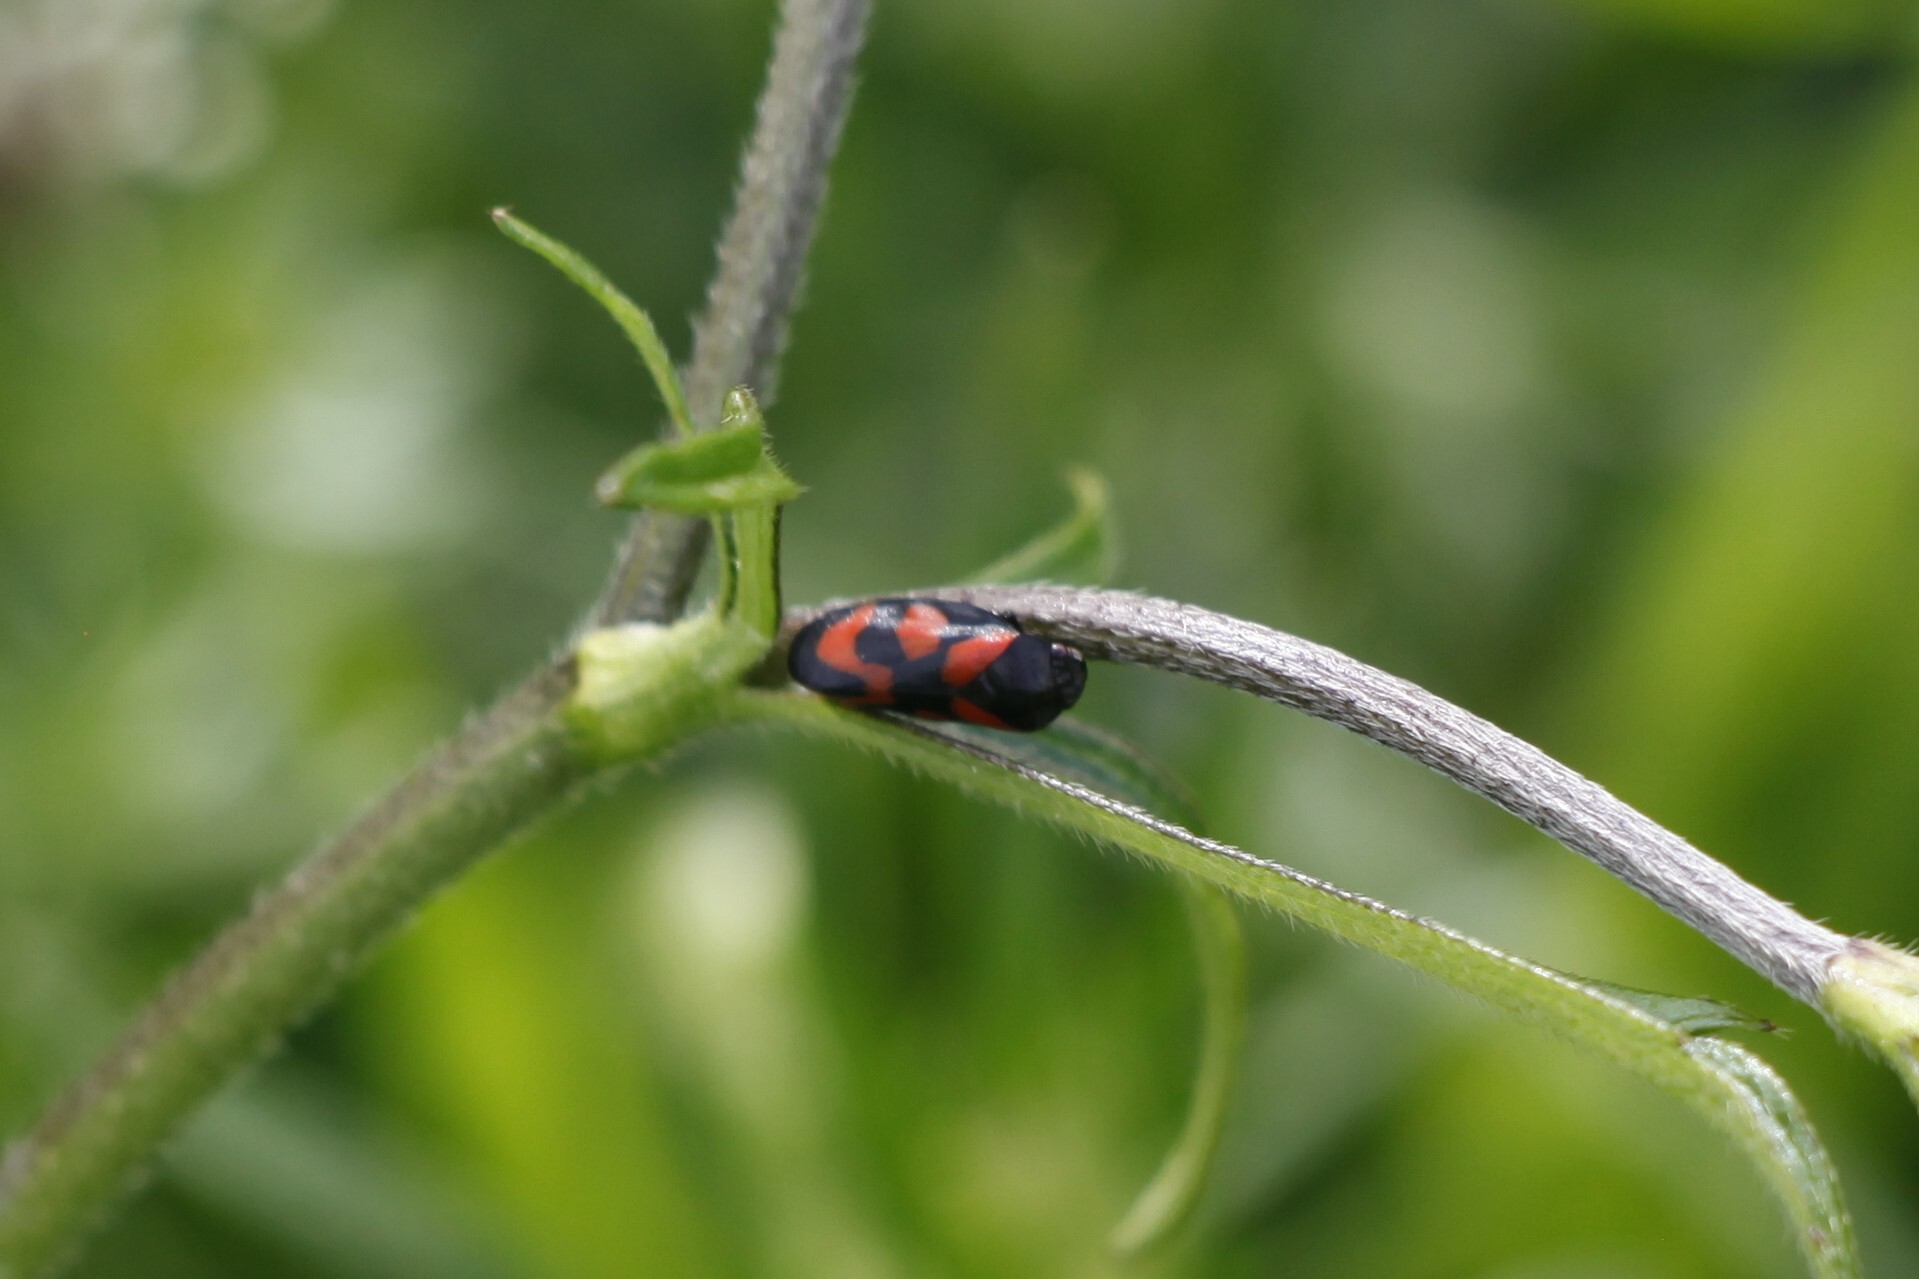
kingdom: Animalia
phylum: Arthropoda
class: Insecta
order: Hemiptera
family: Cercopidae
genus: Cercopis
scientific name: Cercopis vulnerata
